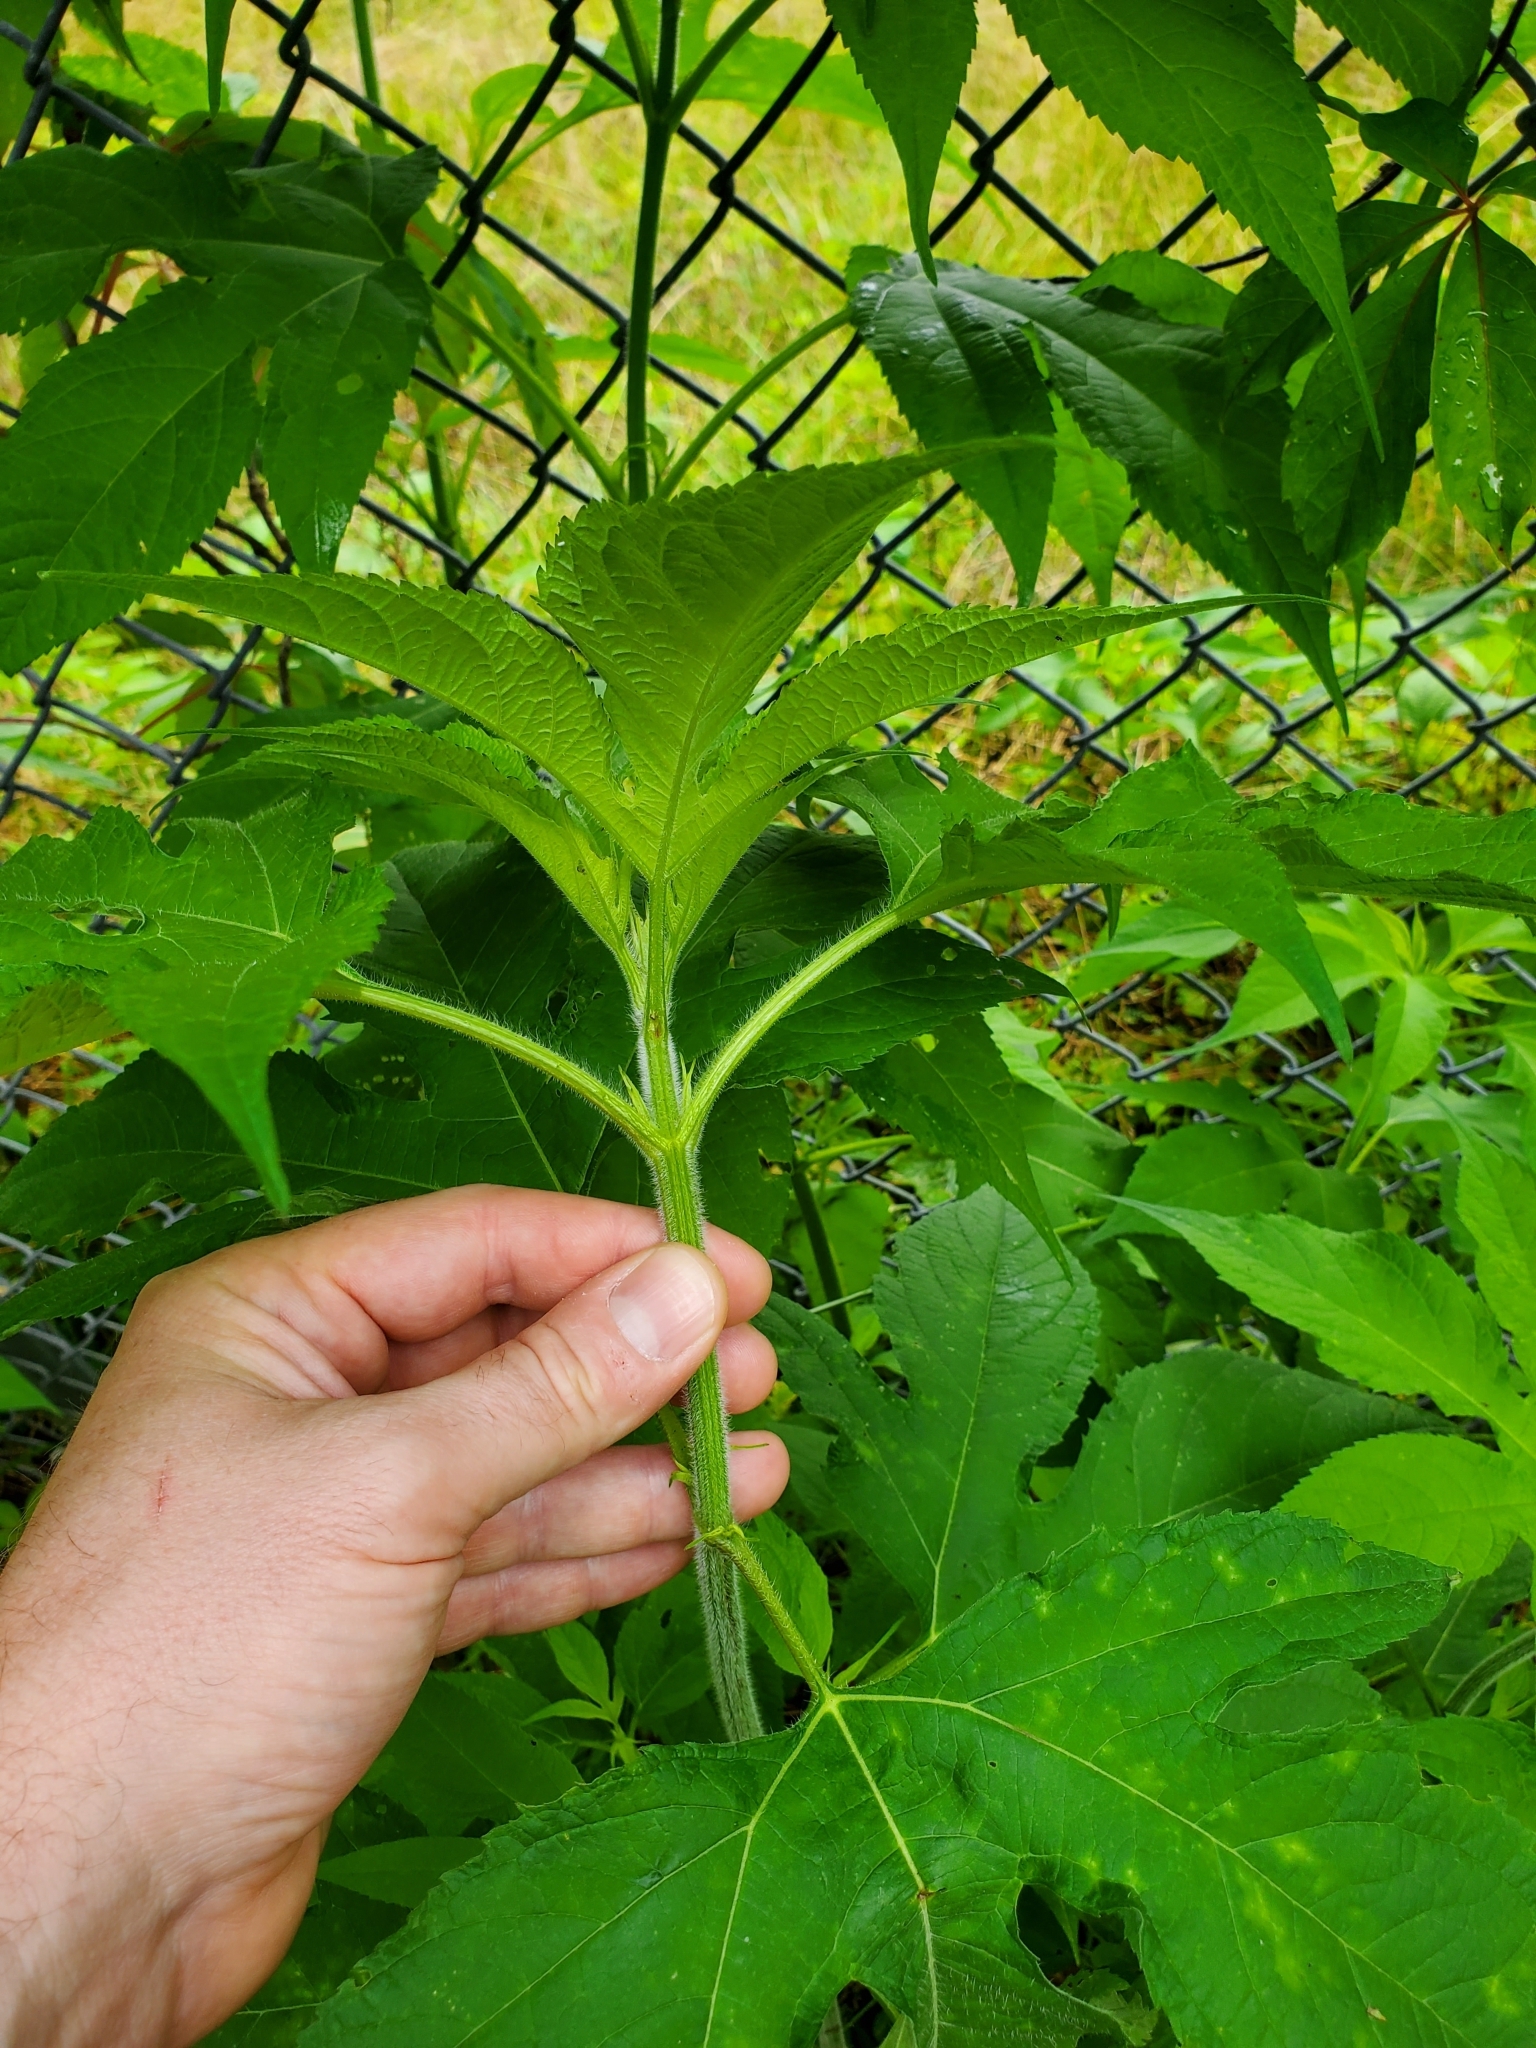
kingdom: Plantae
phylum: Tracheophyta
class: Magnoliopsida
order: Asterales
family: Asteraceae
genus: Ambrosia
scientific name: Ambrosia trifida
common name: Giant ragweed
